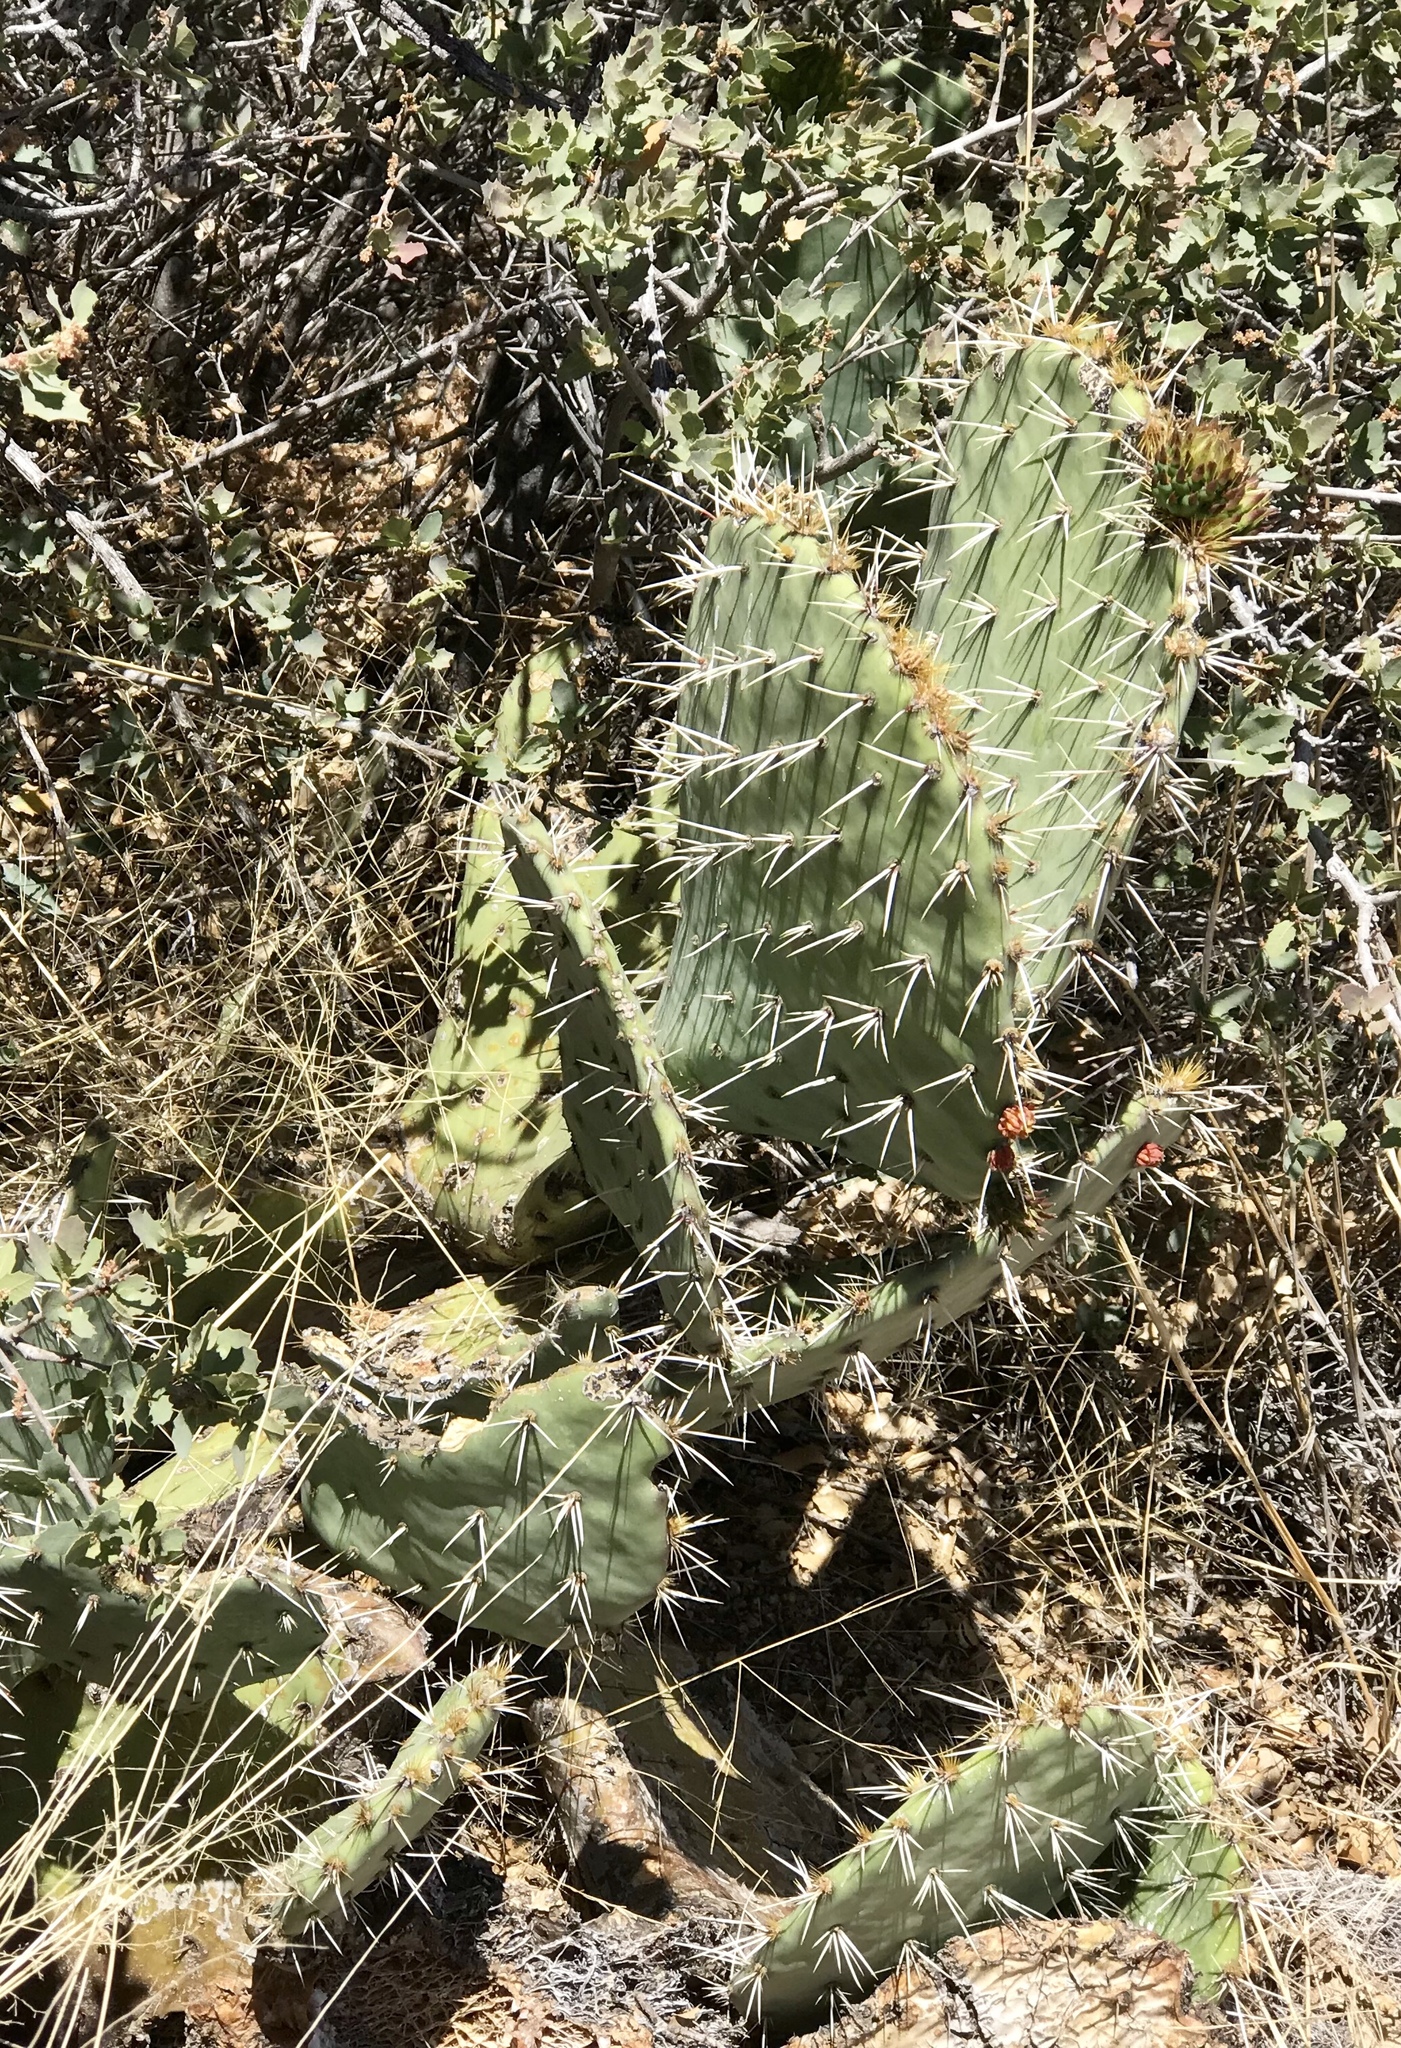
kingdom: Plantae
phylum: Tracheophyta
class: Magnoliopsida
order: Caryophyllales
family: Cactaceae
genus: Opuntia
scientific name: Opuntia engelmannii
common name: Cactus-apple
